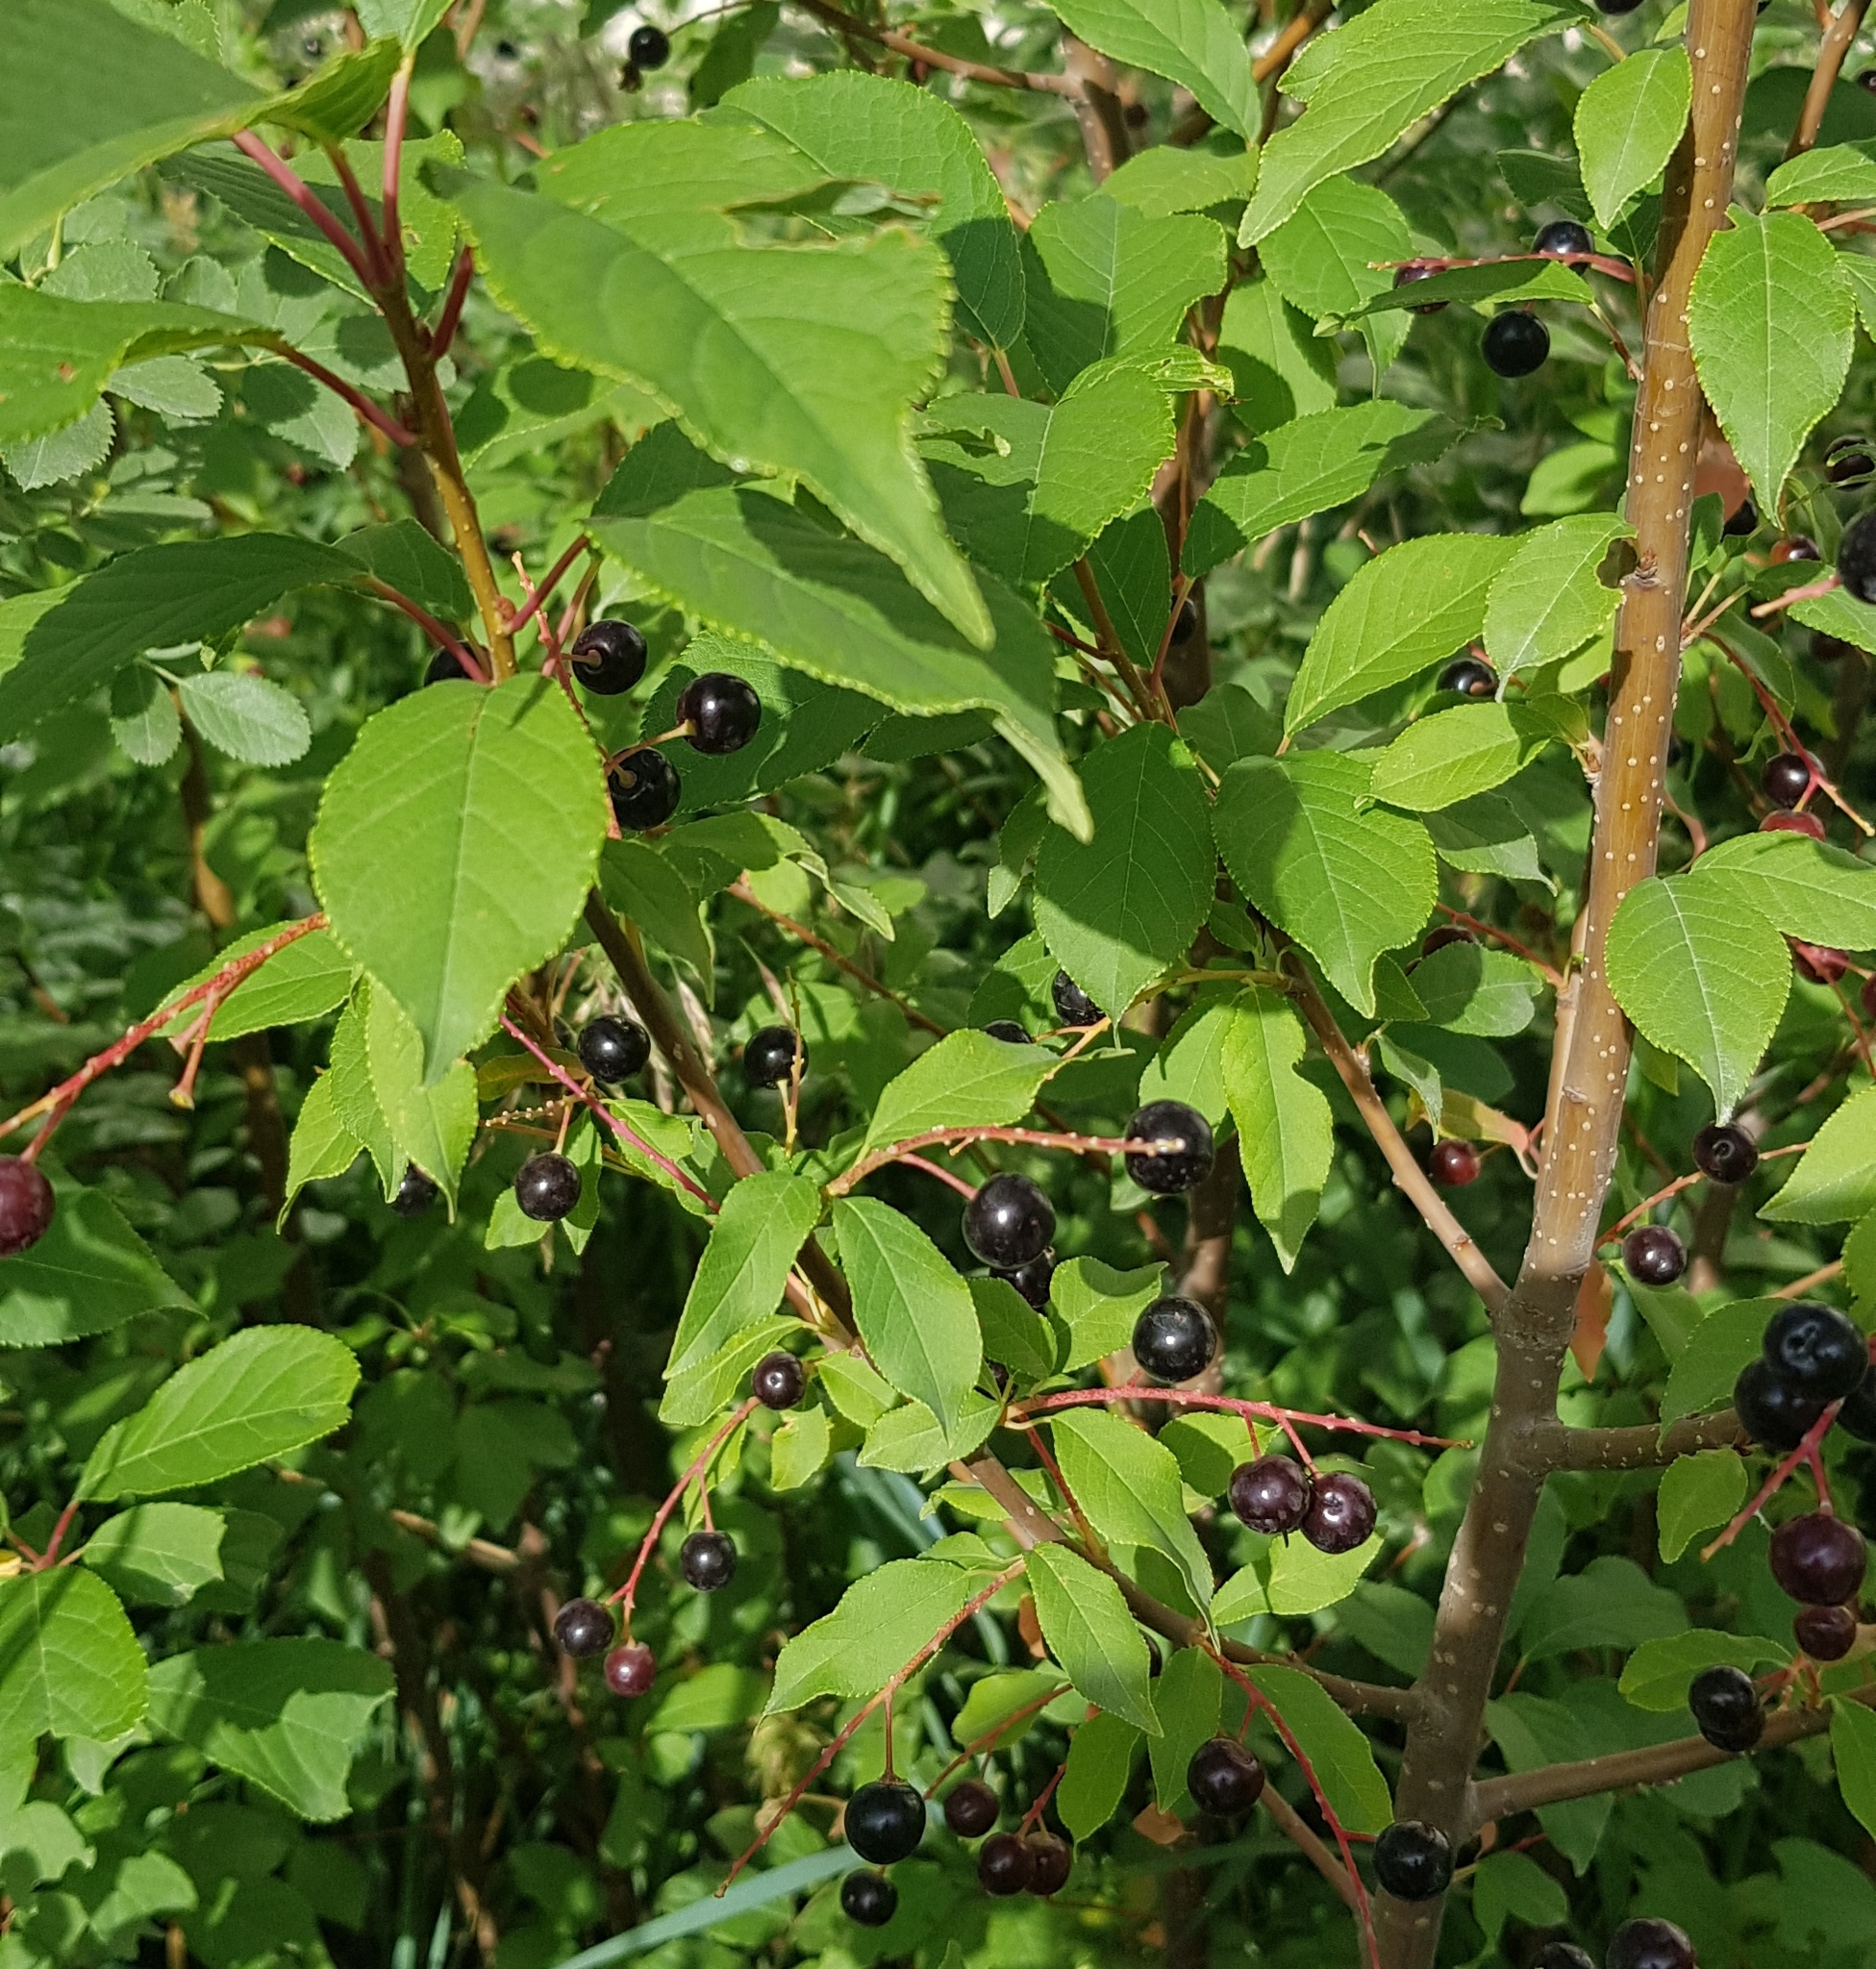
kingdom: Plantae
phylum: Tracheophyta
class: Magnoliopsida
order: Rosales
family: Rosaceae
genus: Prunus
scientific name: Prunus padus
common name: Bird cherry
